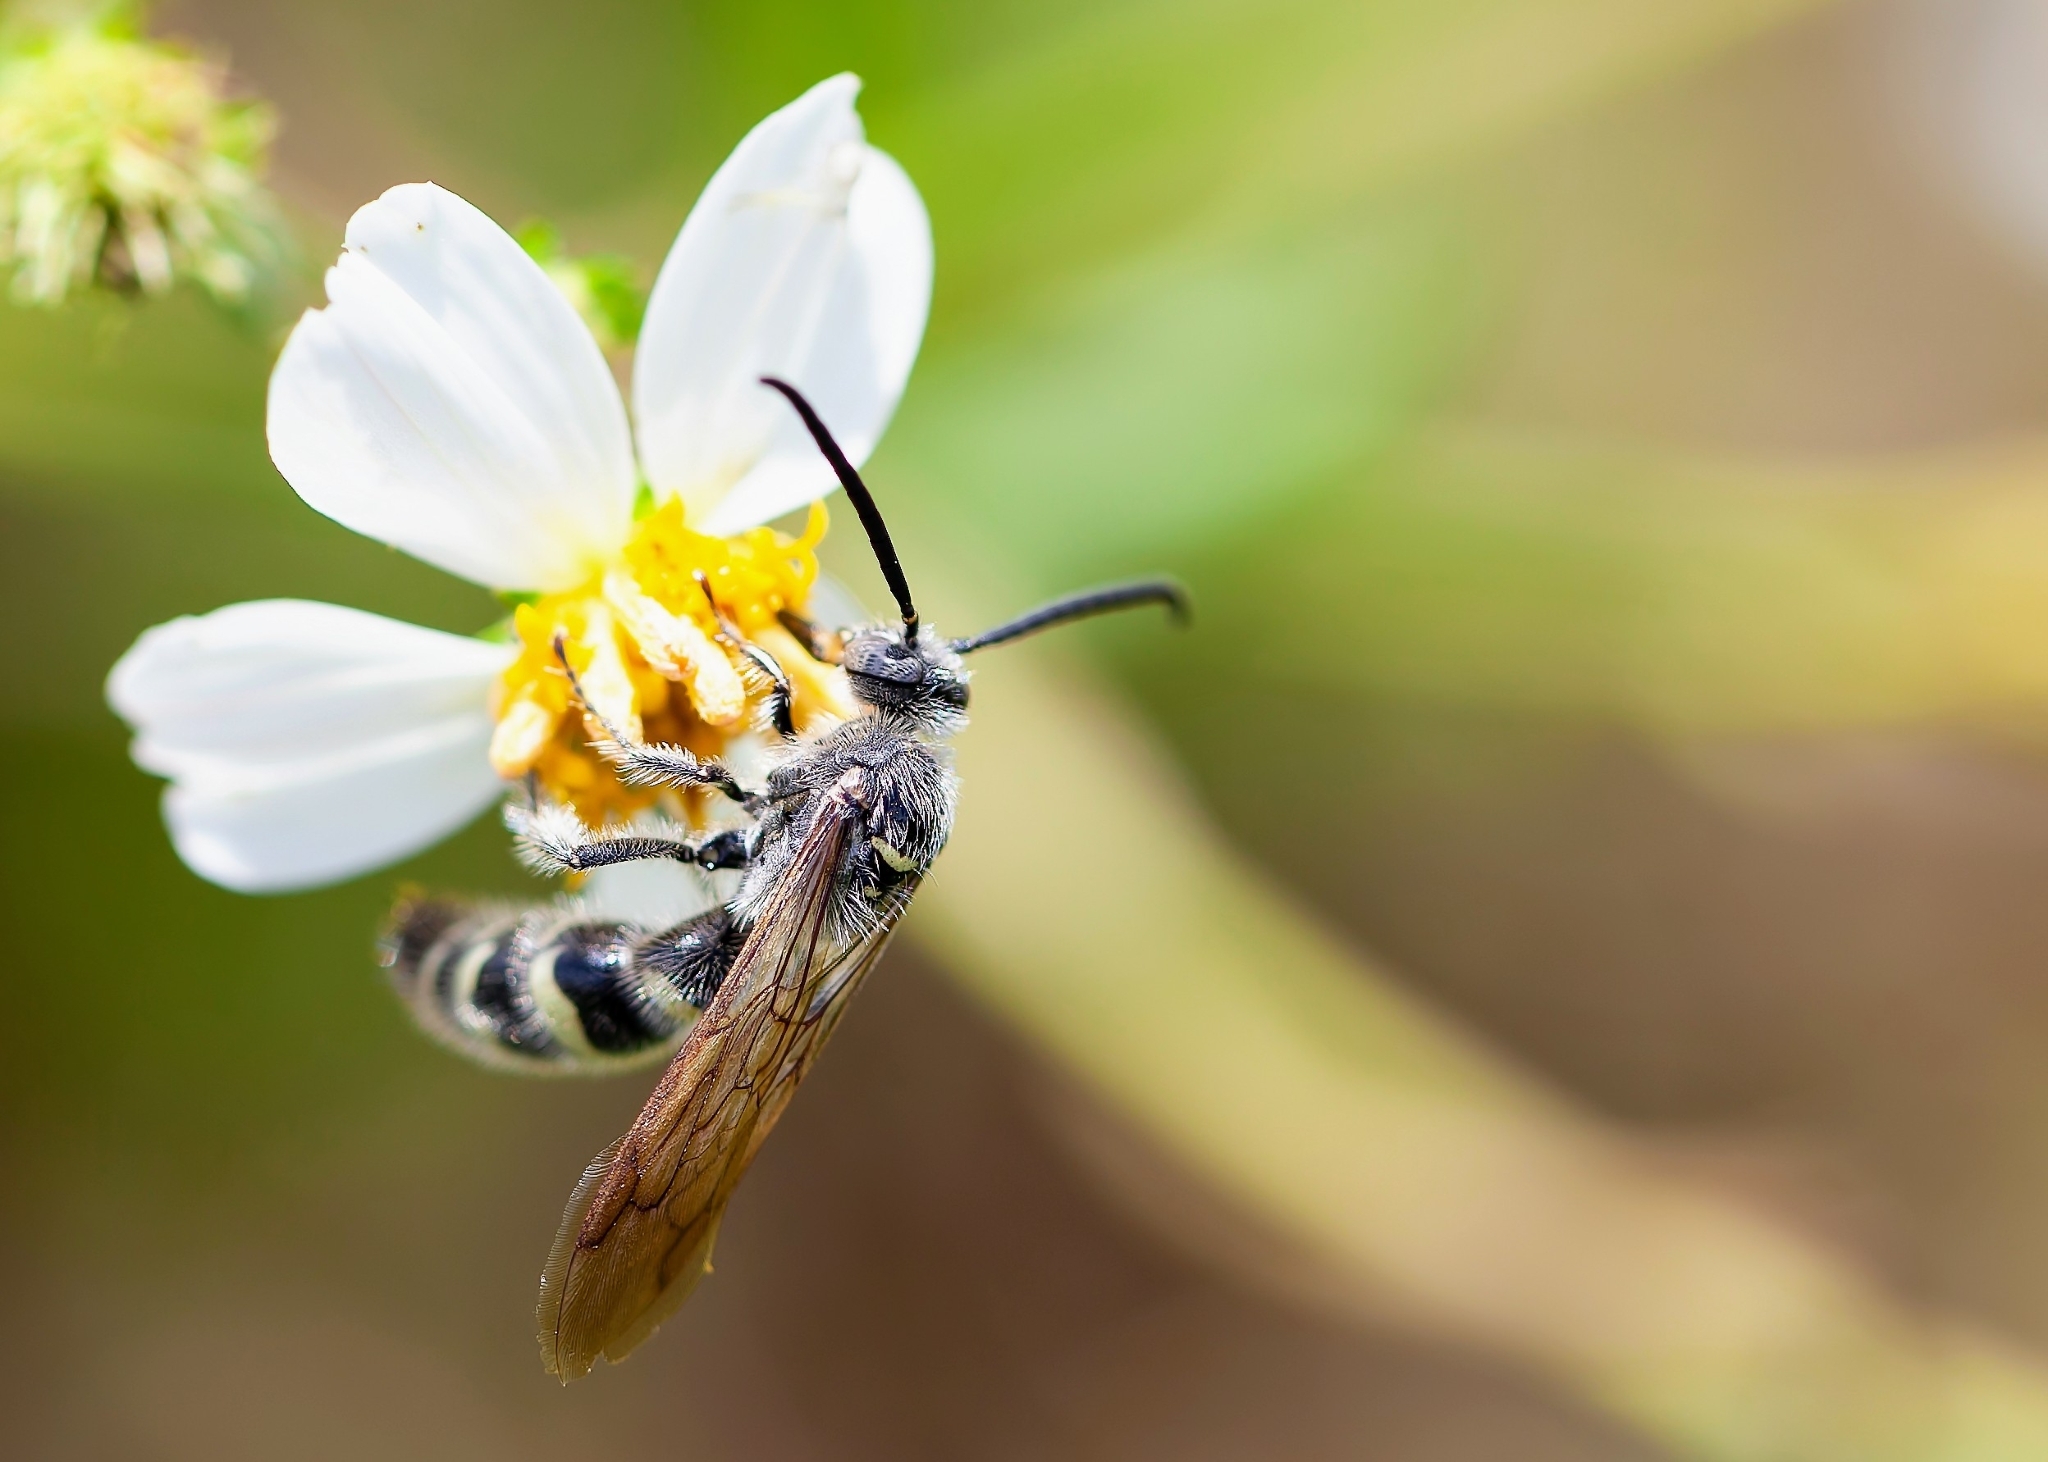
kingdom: Animalia
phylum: Arthropoda
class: Insecta
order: Hymenoptera
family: Scoliidae
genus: Dielis
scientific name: Dielis
